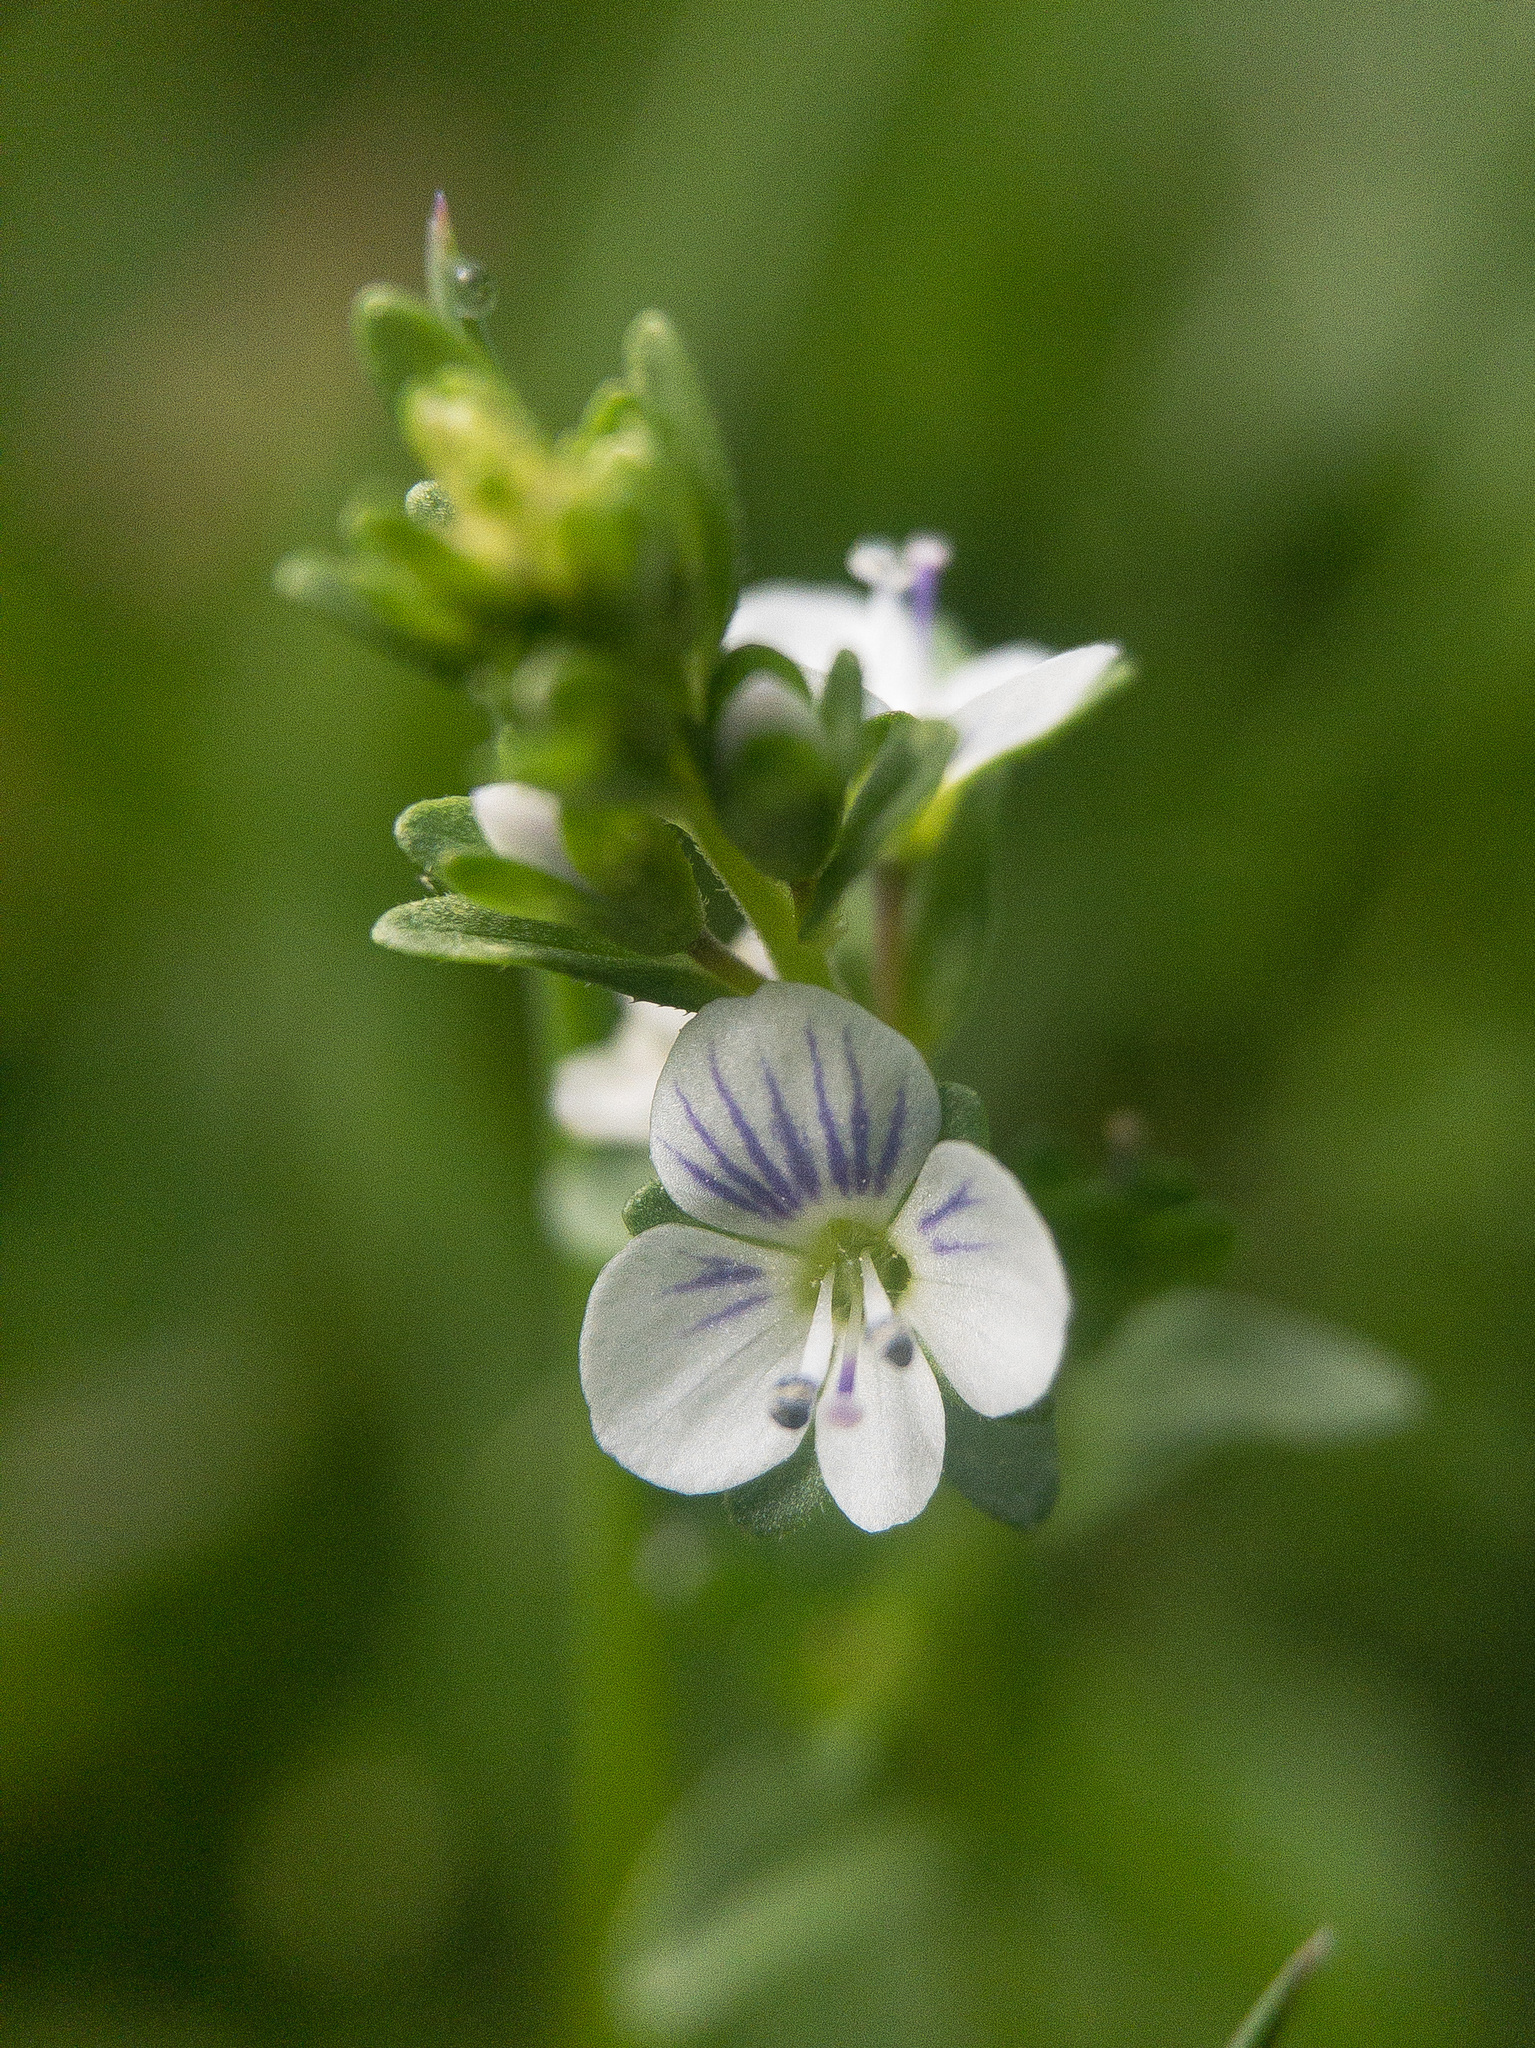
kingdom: Plantae
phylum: Tracheophyta
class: Magnoliopsida
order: Lamiales
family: Plantaginaceae
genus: Veronica
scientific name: Veronica serpyllifolia
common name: Thyme-leaved speedwell
